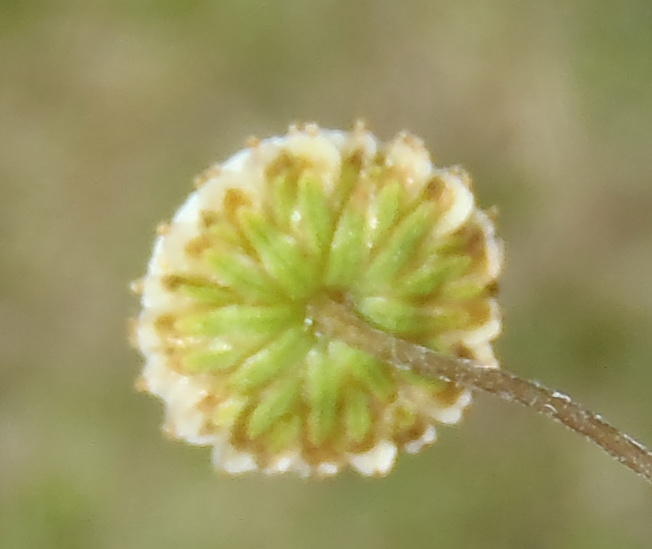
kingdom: Plantae
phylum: Tracheophyta
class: Magnoliopsida
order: Asterales
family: Asteraceae
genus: Cotula
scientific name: Cotula laxa
